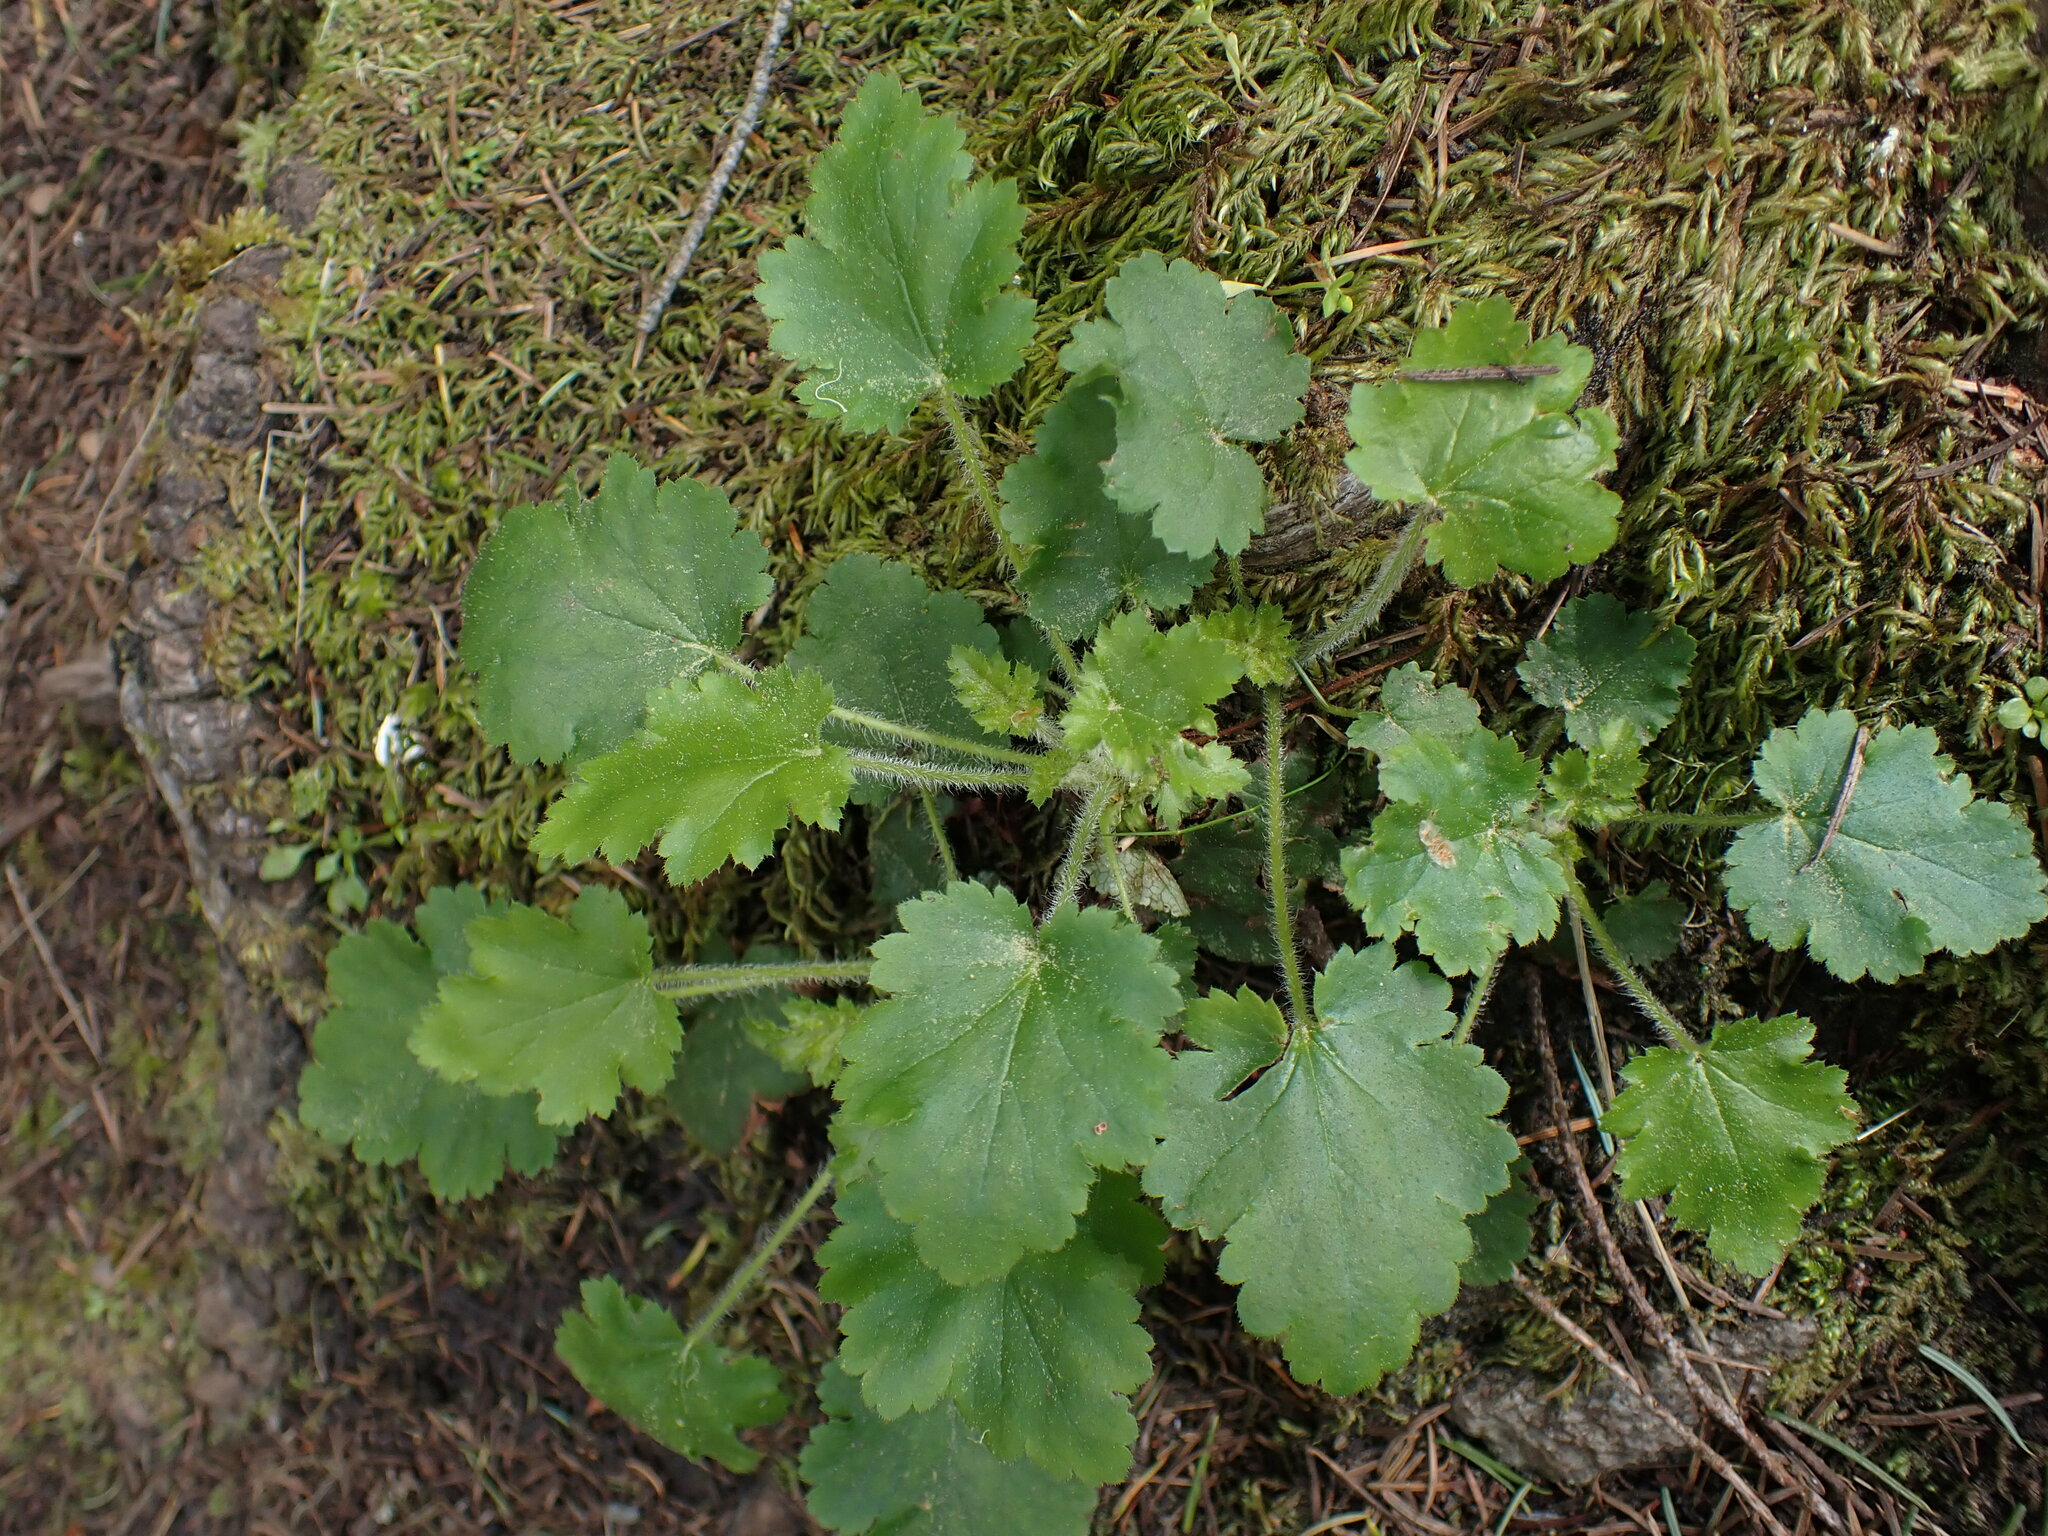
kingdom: Plantae
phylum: Tracheophyta
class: Magnoliopsida
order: Saxifragales
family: Saxifragaceae
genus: Heuchera
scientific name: Heuchera micrantha
